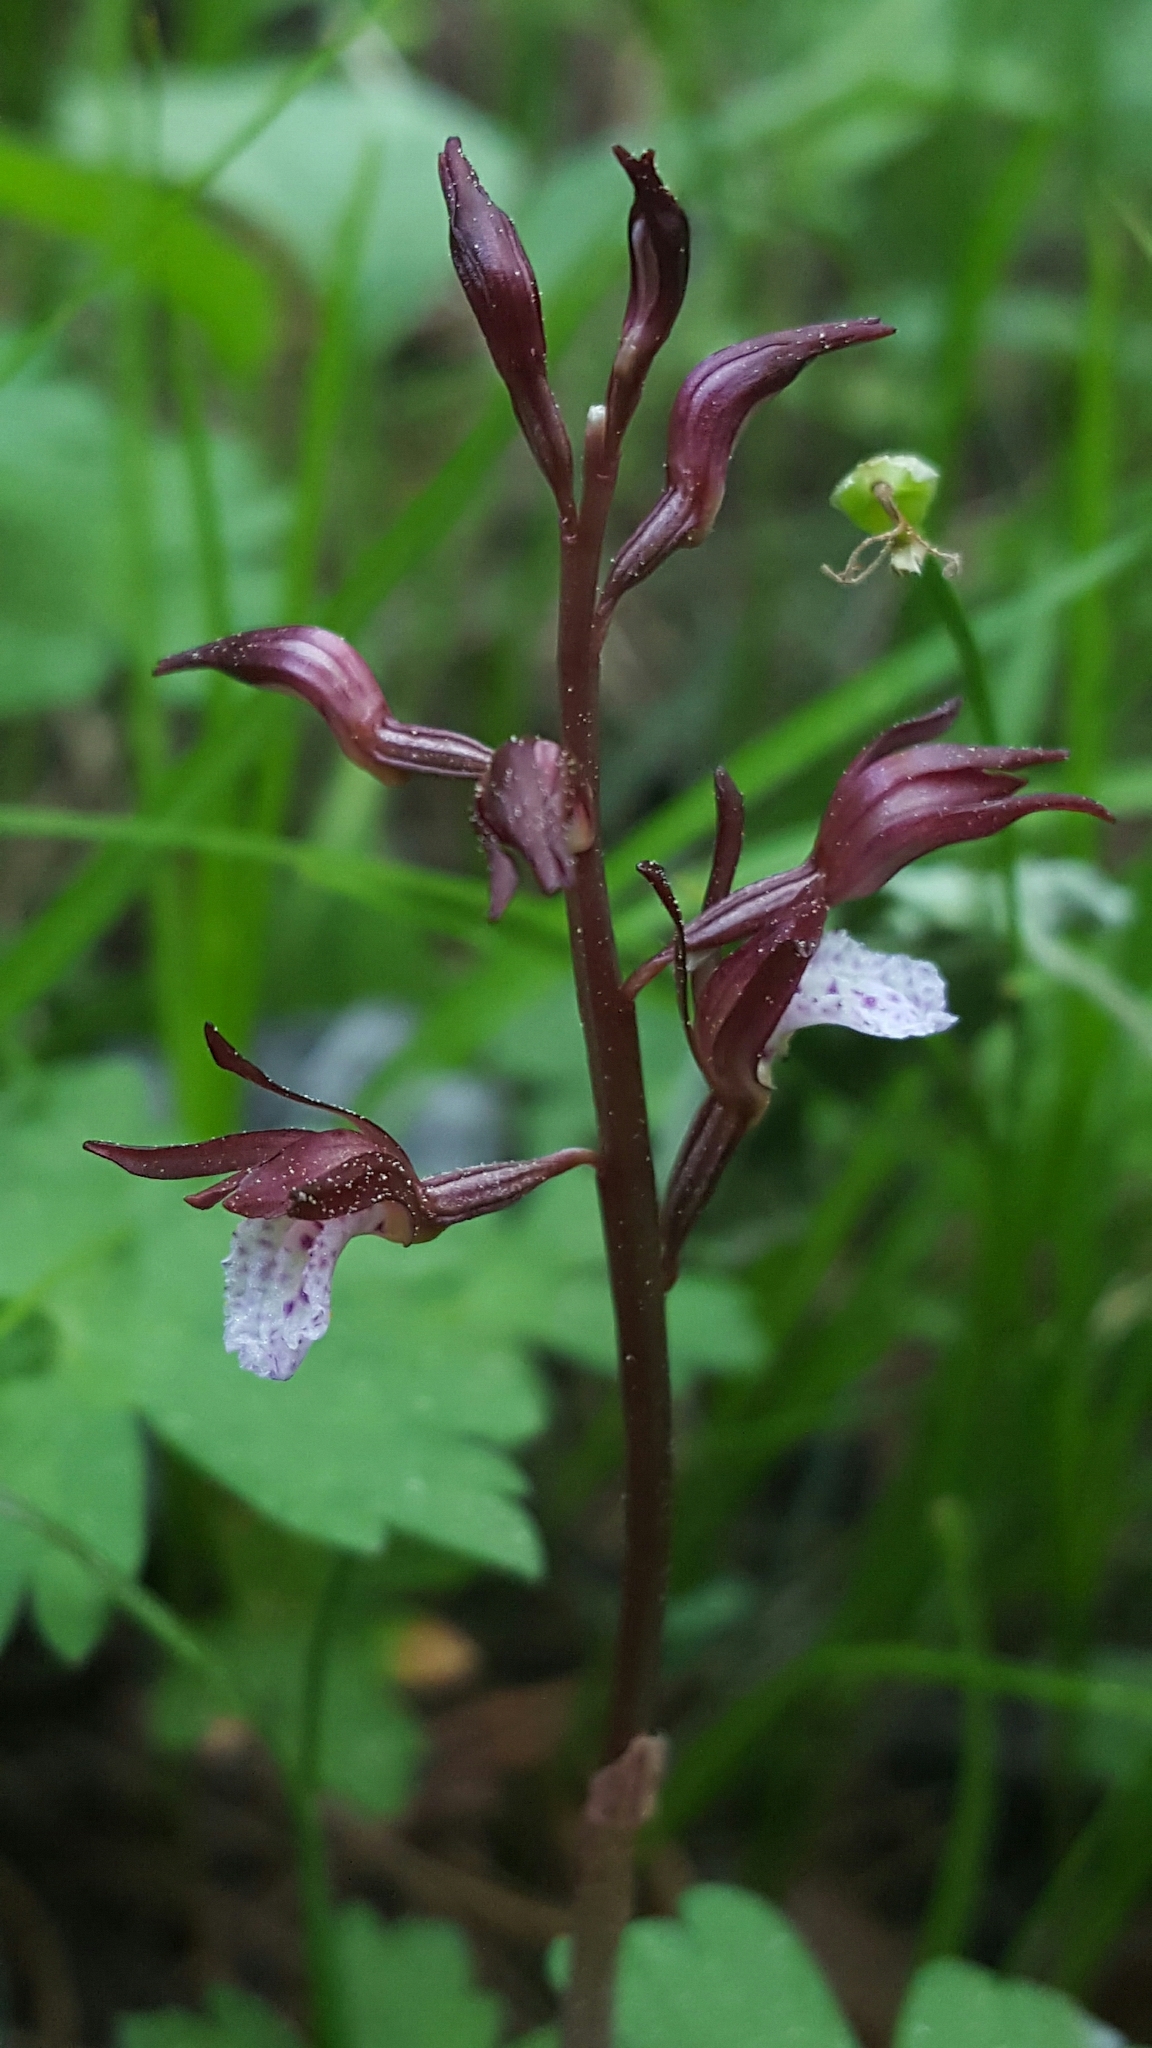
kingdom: Plantae
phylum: Tracheophyta
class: Liliopsida
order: Asparagales
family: Orchidaceae
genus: Corallorhiza
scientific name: Corallorhiza wisteriana
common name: Spring coralroot
